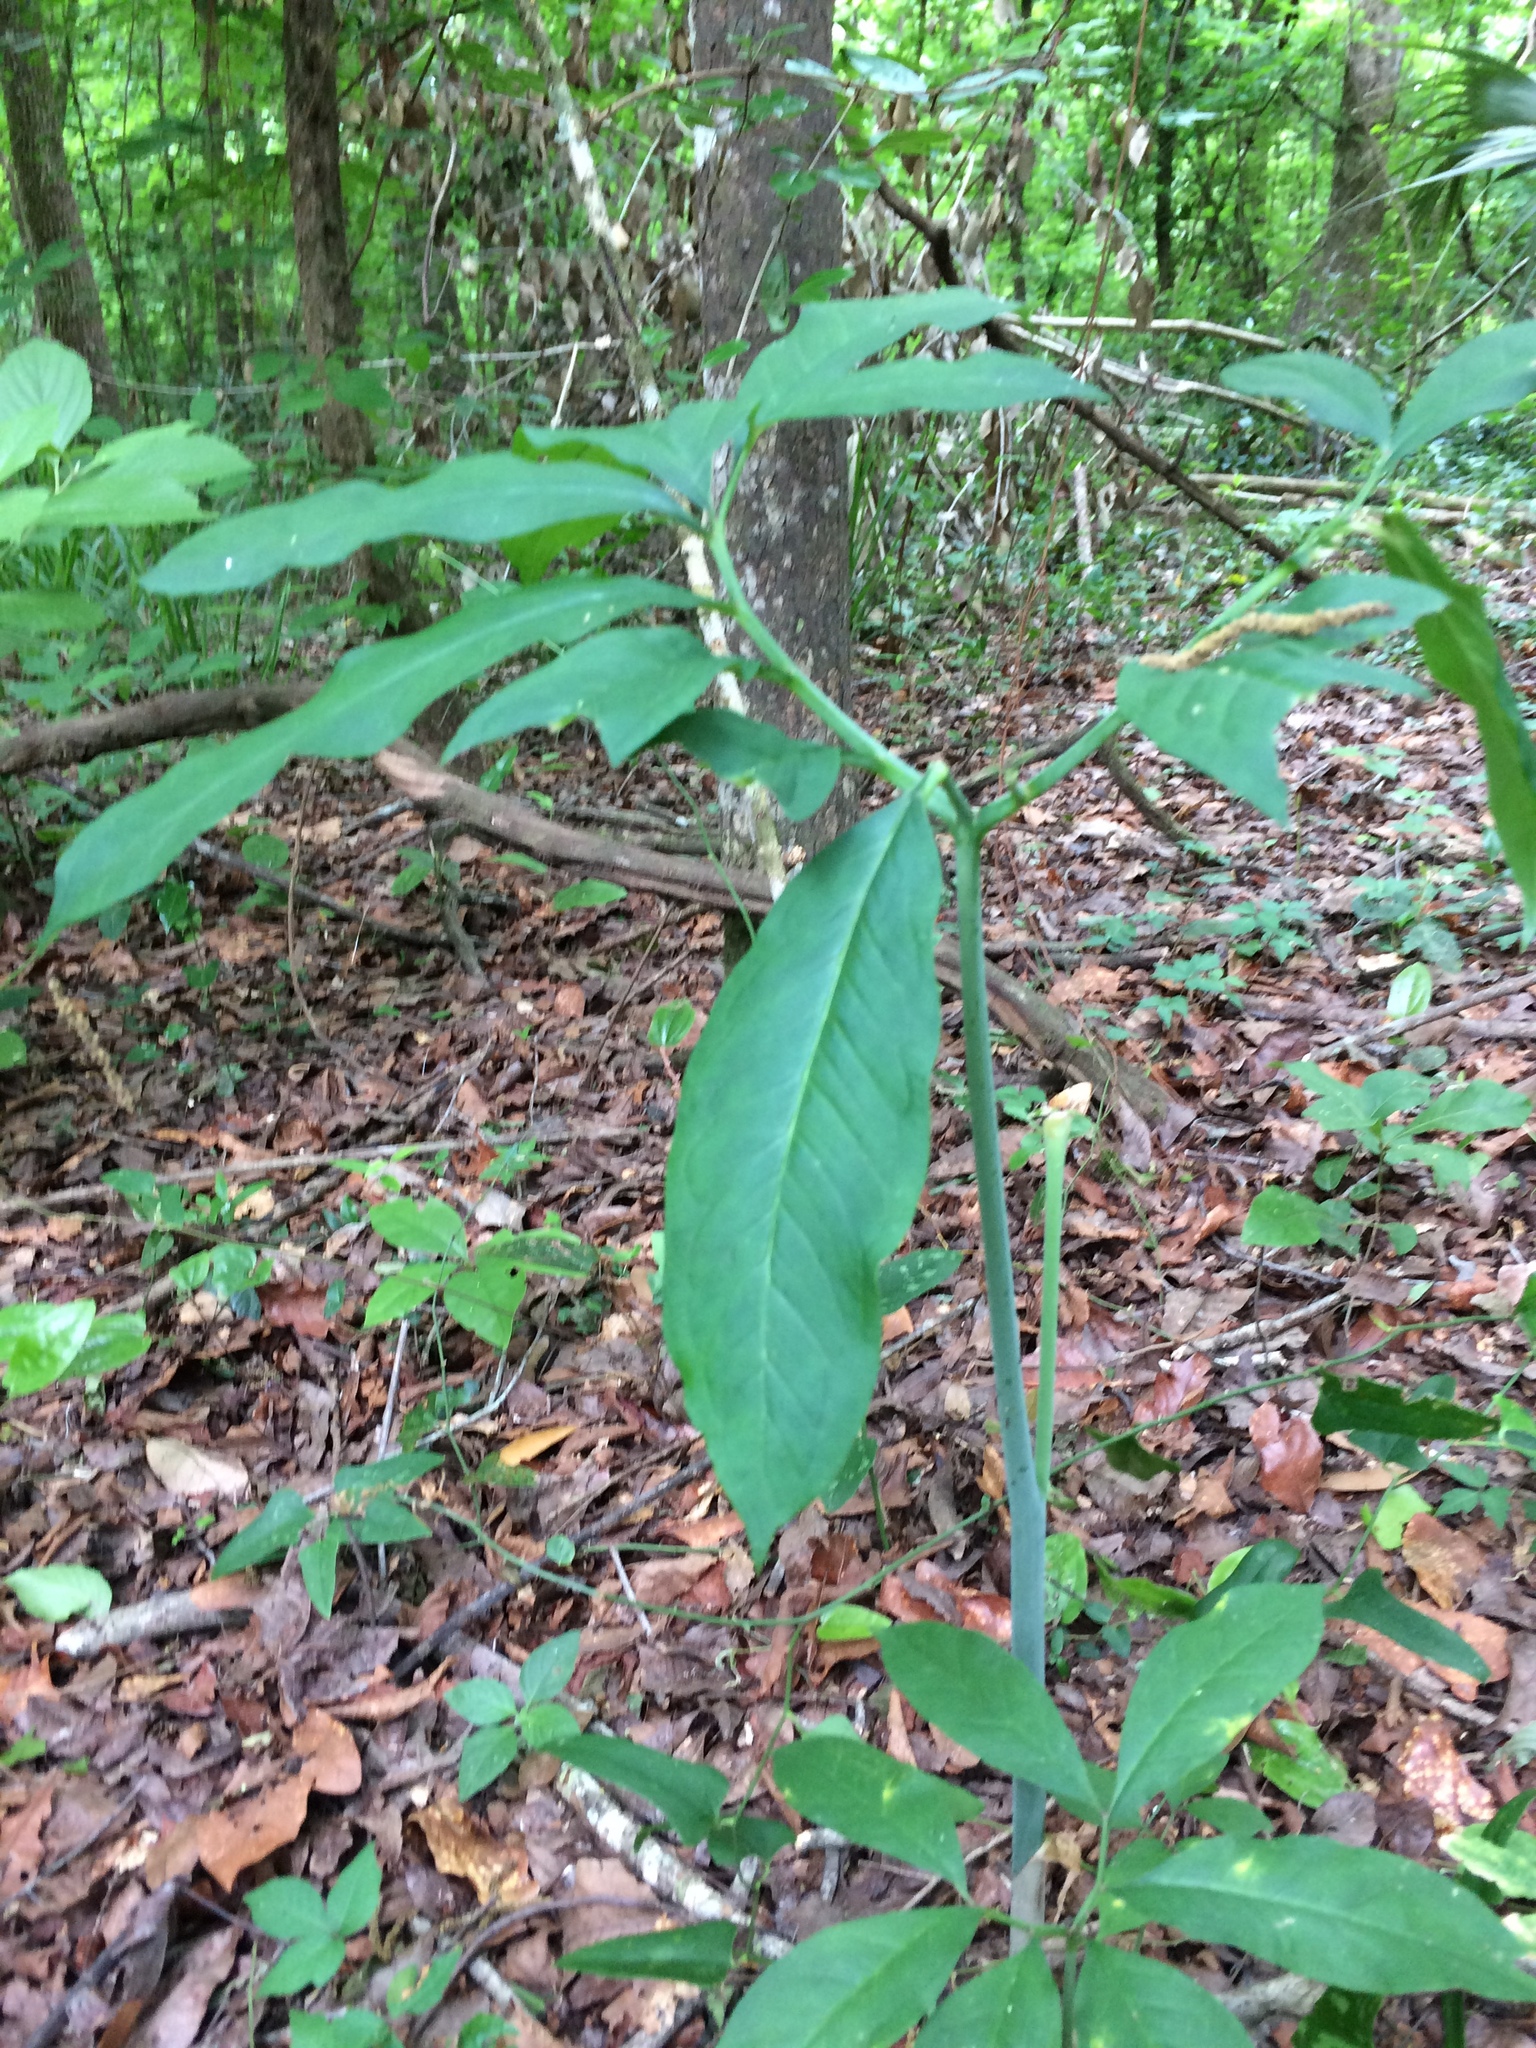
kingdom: Plantae
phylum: Tracheophyta
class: Liliopsida
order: Alismatales
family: Araceae
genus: Arisaema
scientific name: Arisaema dracontium
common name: Dragon-arum
